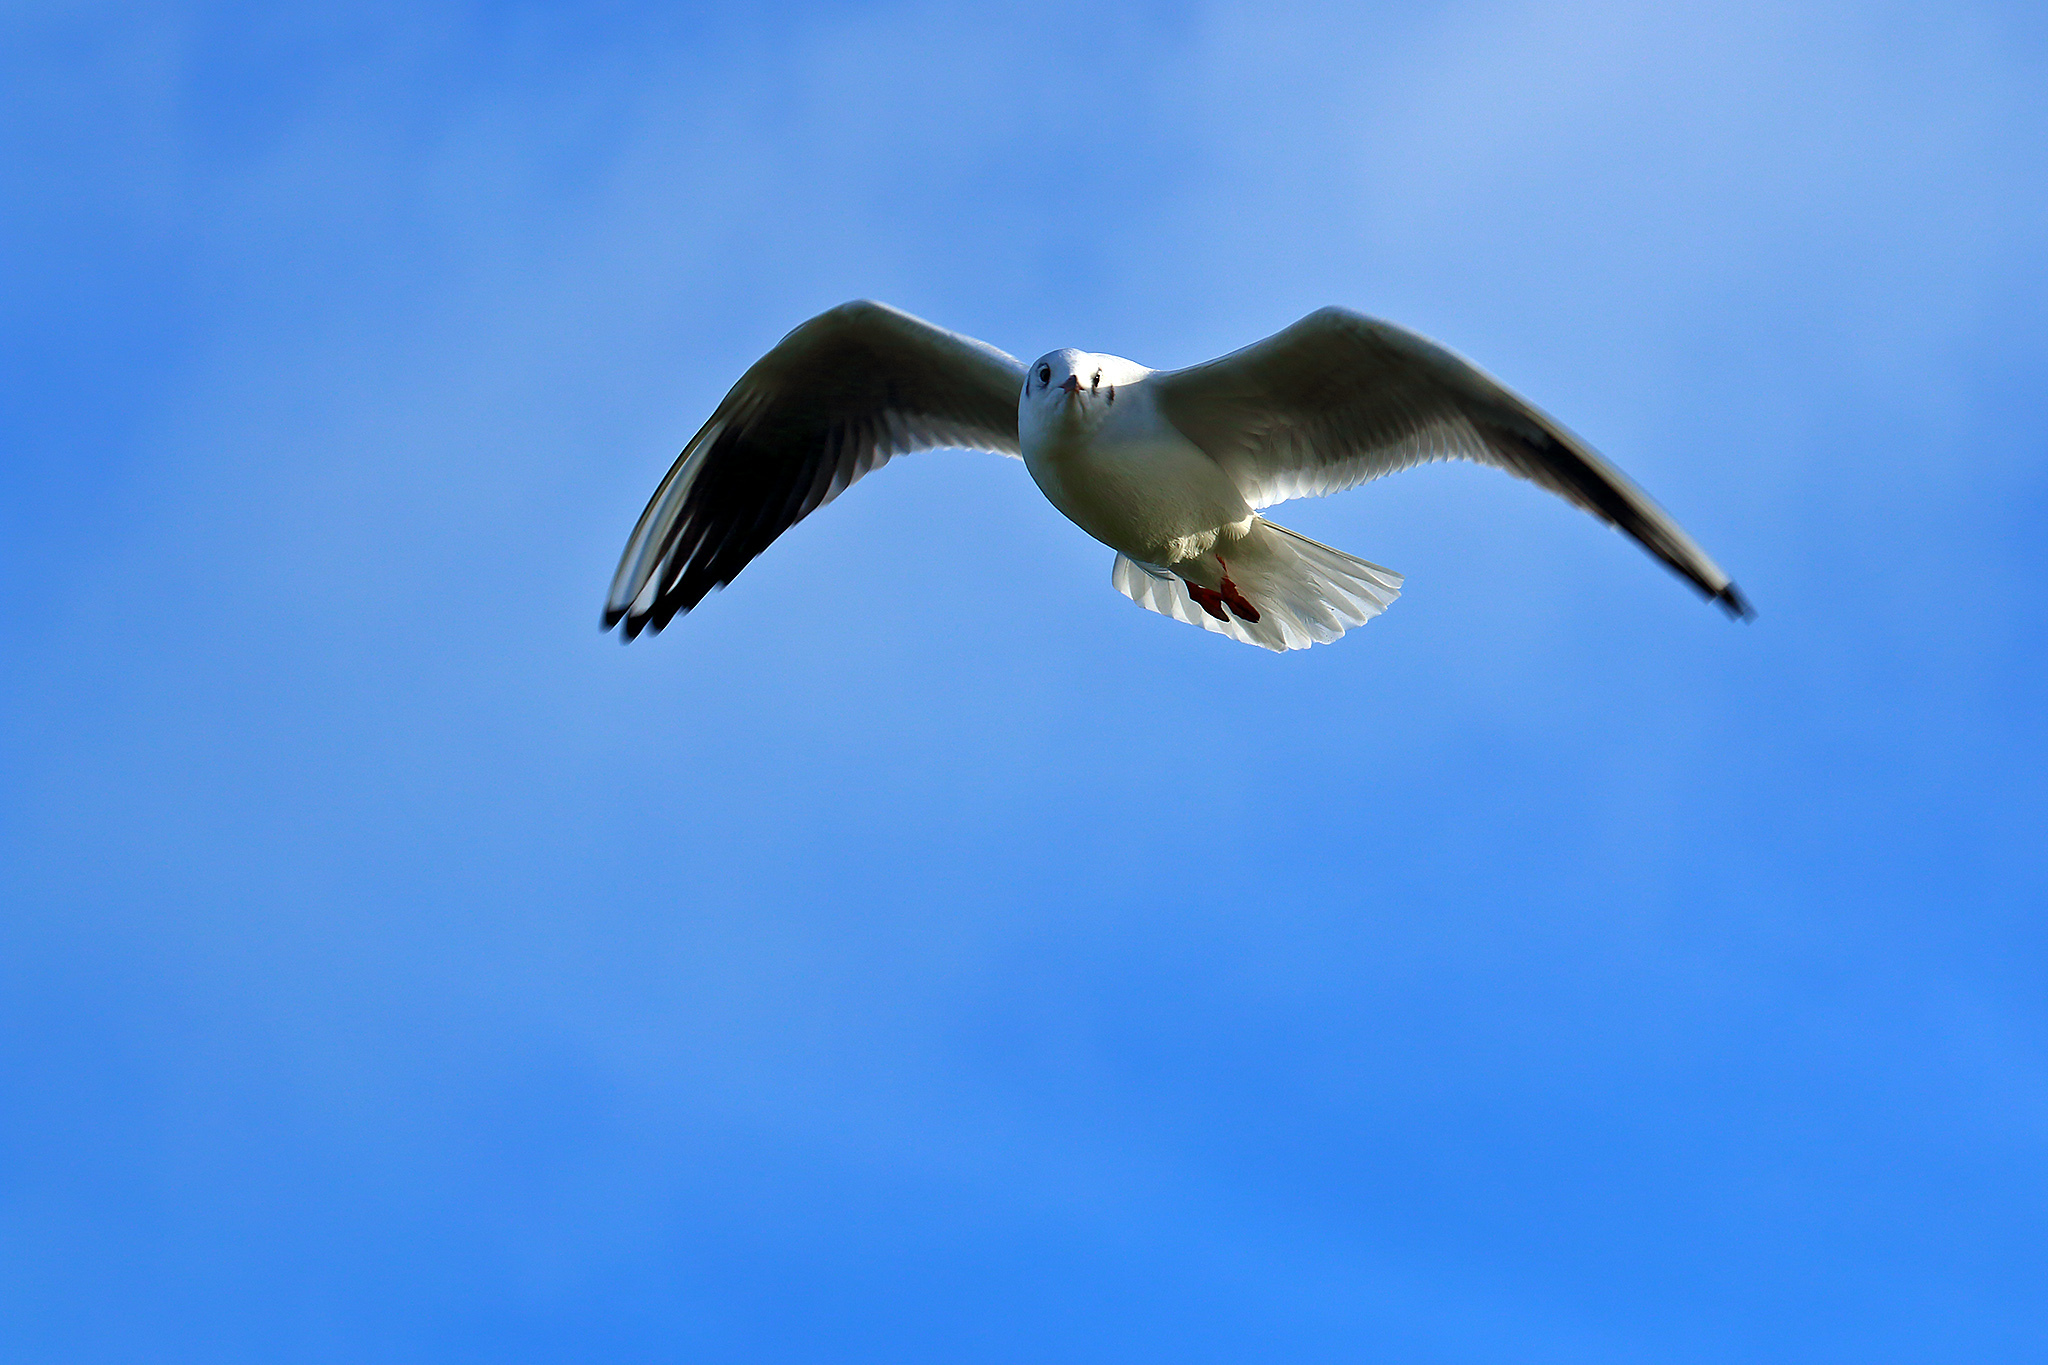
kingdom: Animalia
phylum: Chordata
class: Aves
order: Charadriiformes
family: Laridae
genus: Chroicocephalus
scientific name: Chroicocephalus ridibundus
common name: Black-headed gull
